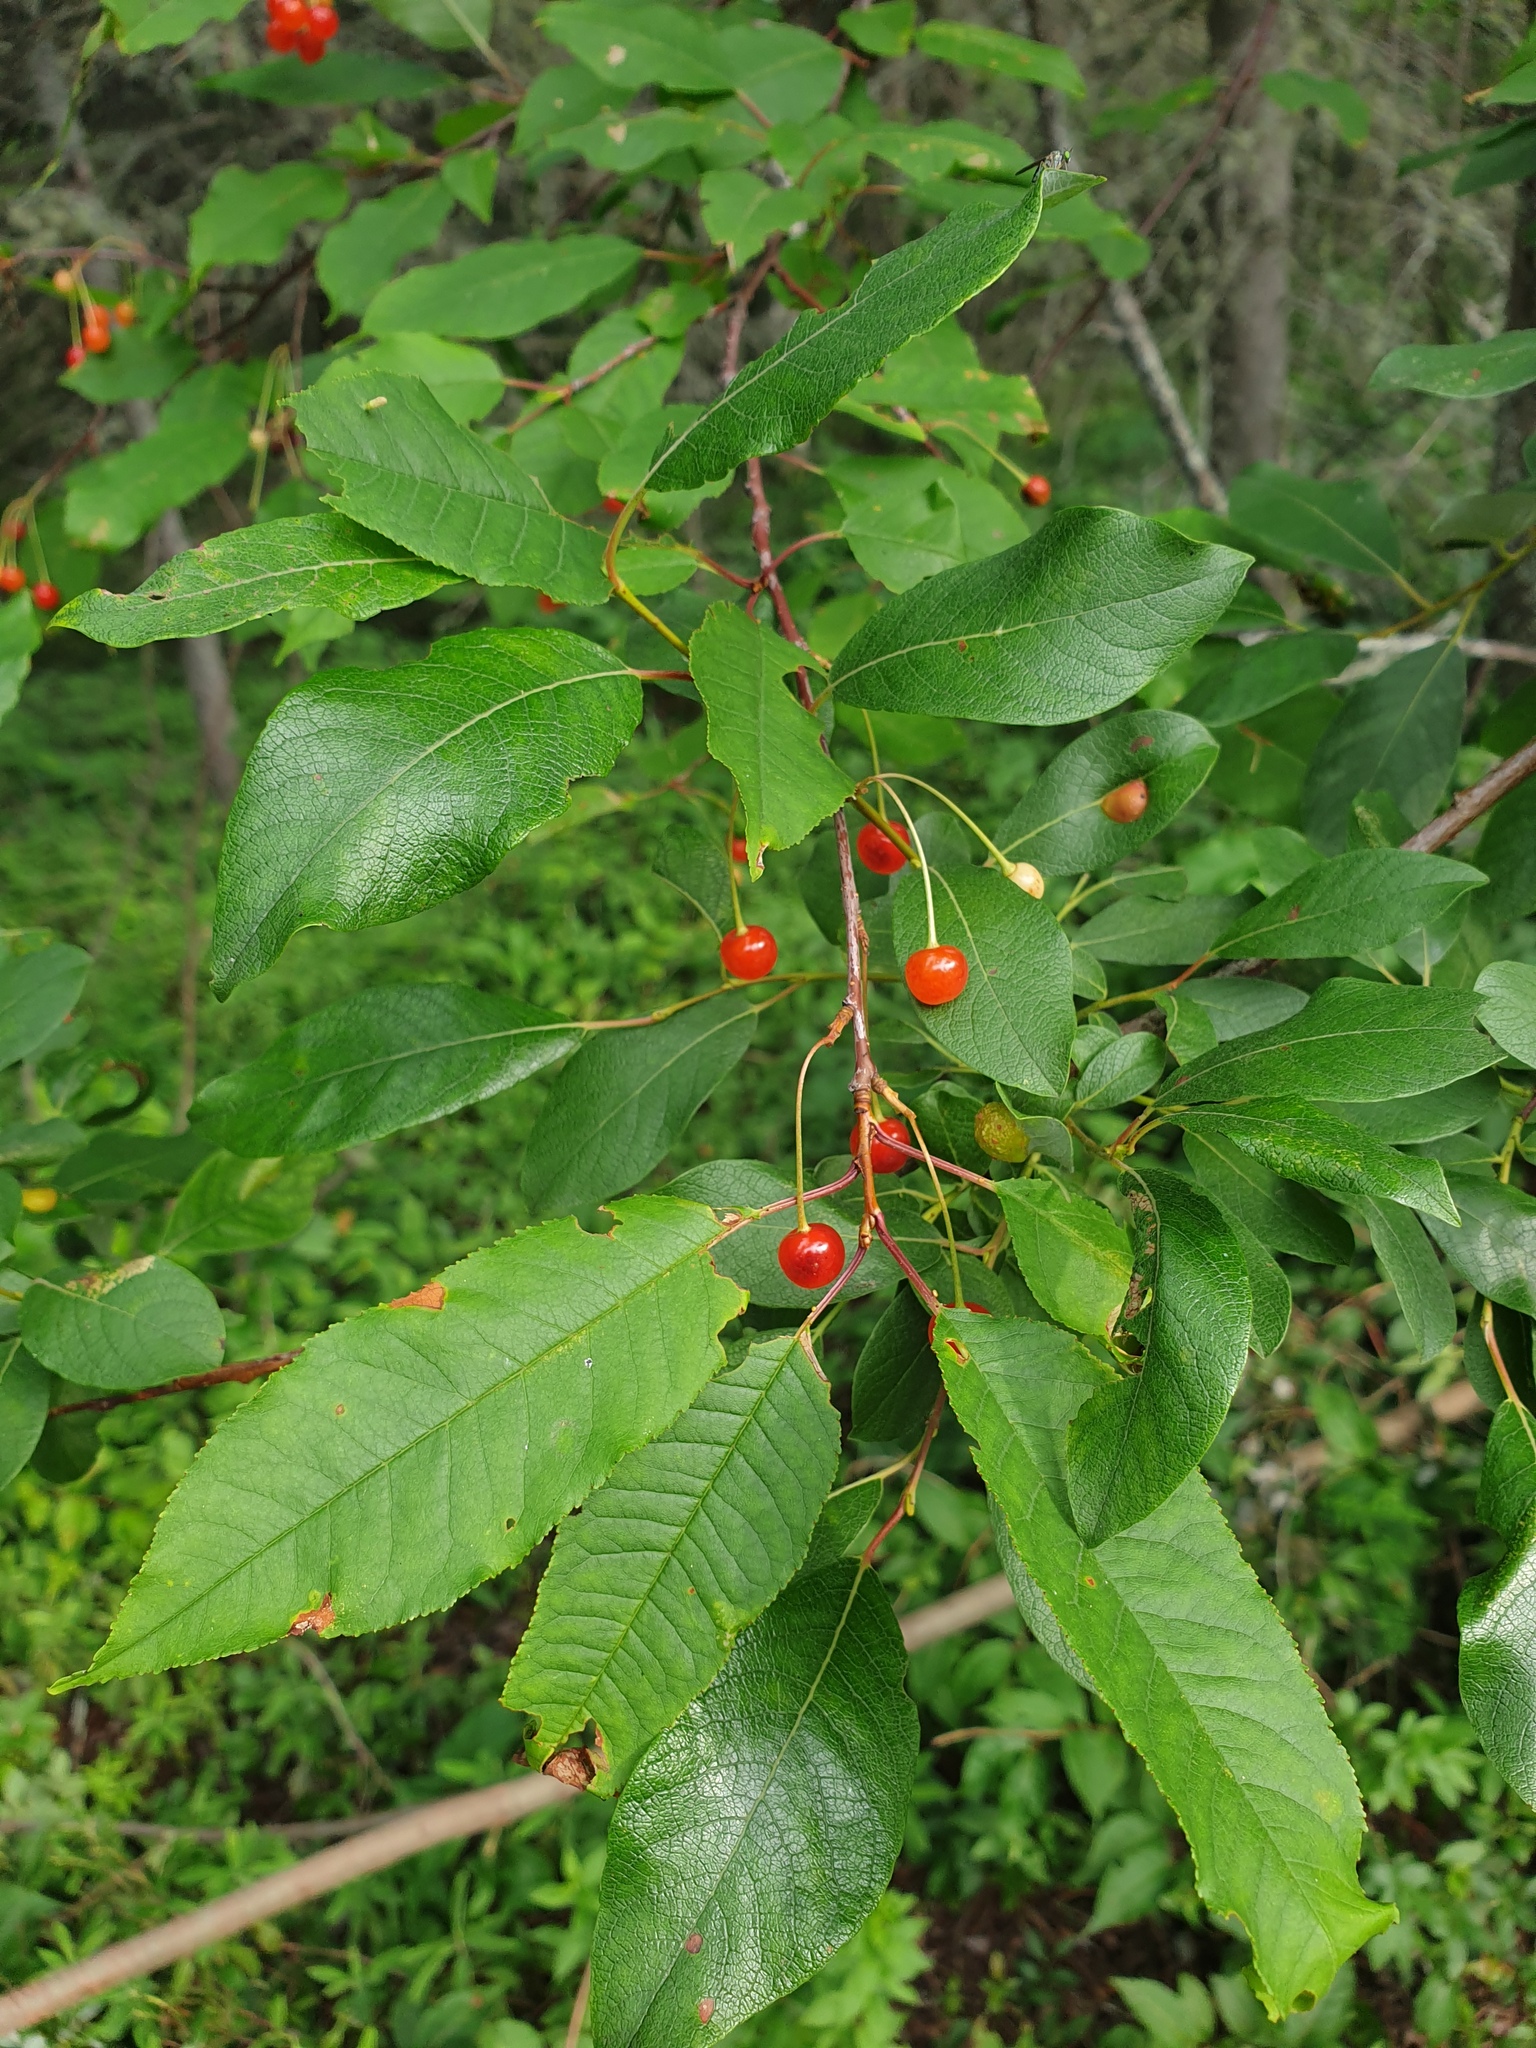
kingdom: Plantae
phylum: Tracheophyta
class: Magnoliopsida
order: Rosales
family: Rosaceae
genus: Prunus
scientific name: Prunus pensylvanica
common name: Pin cherry
